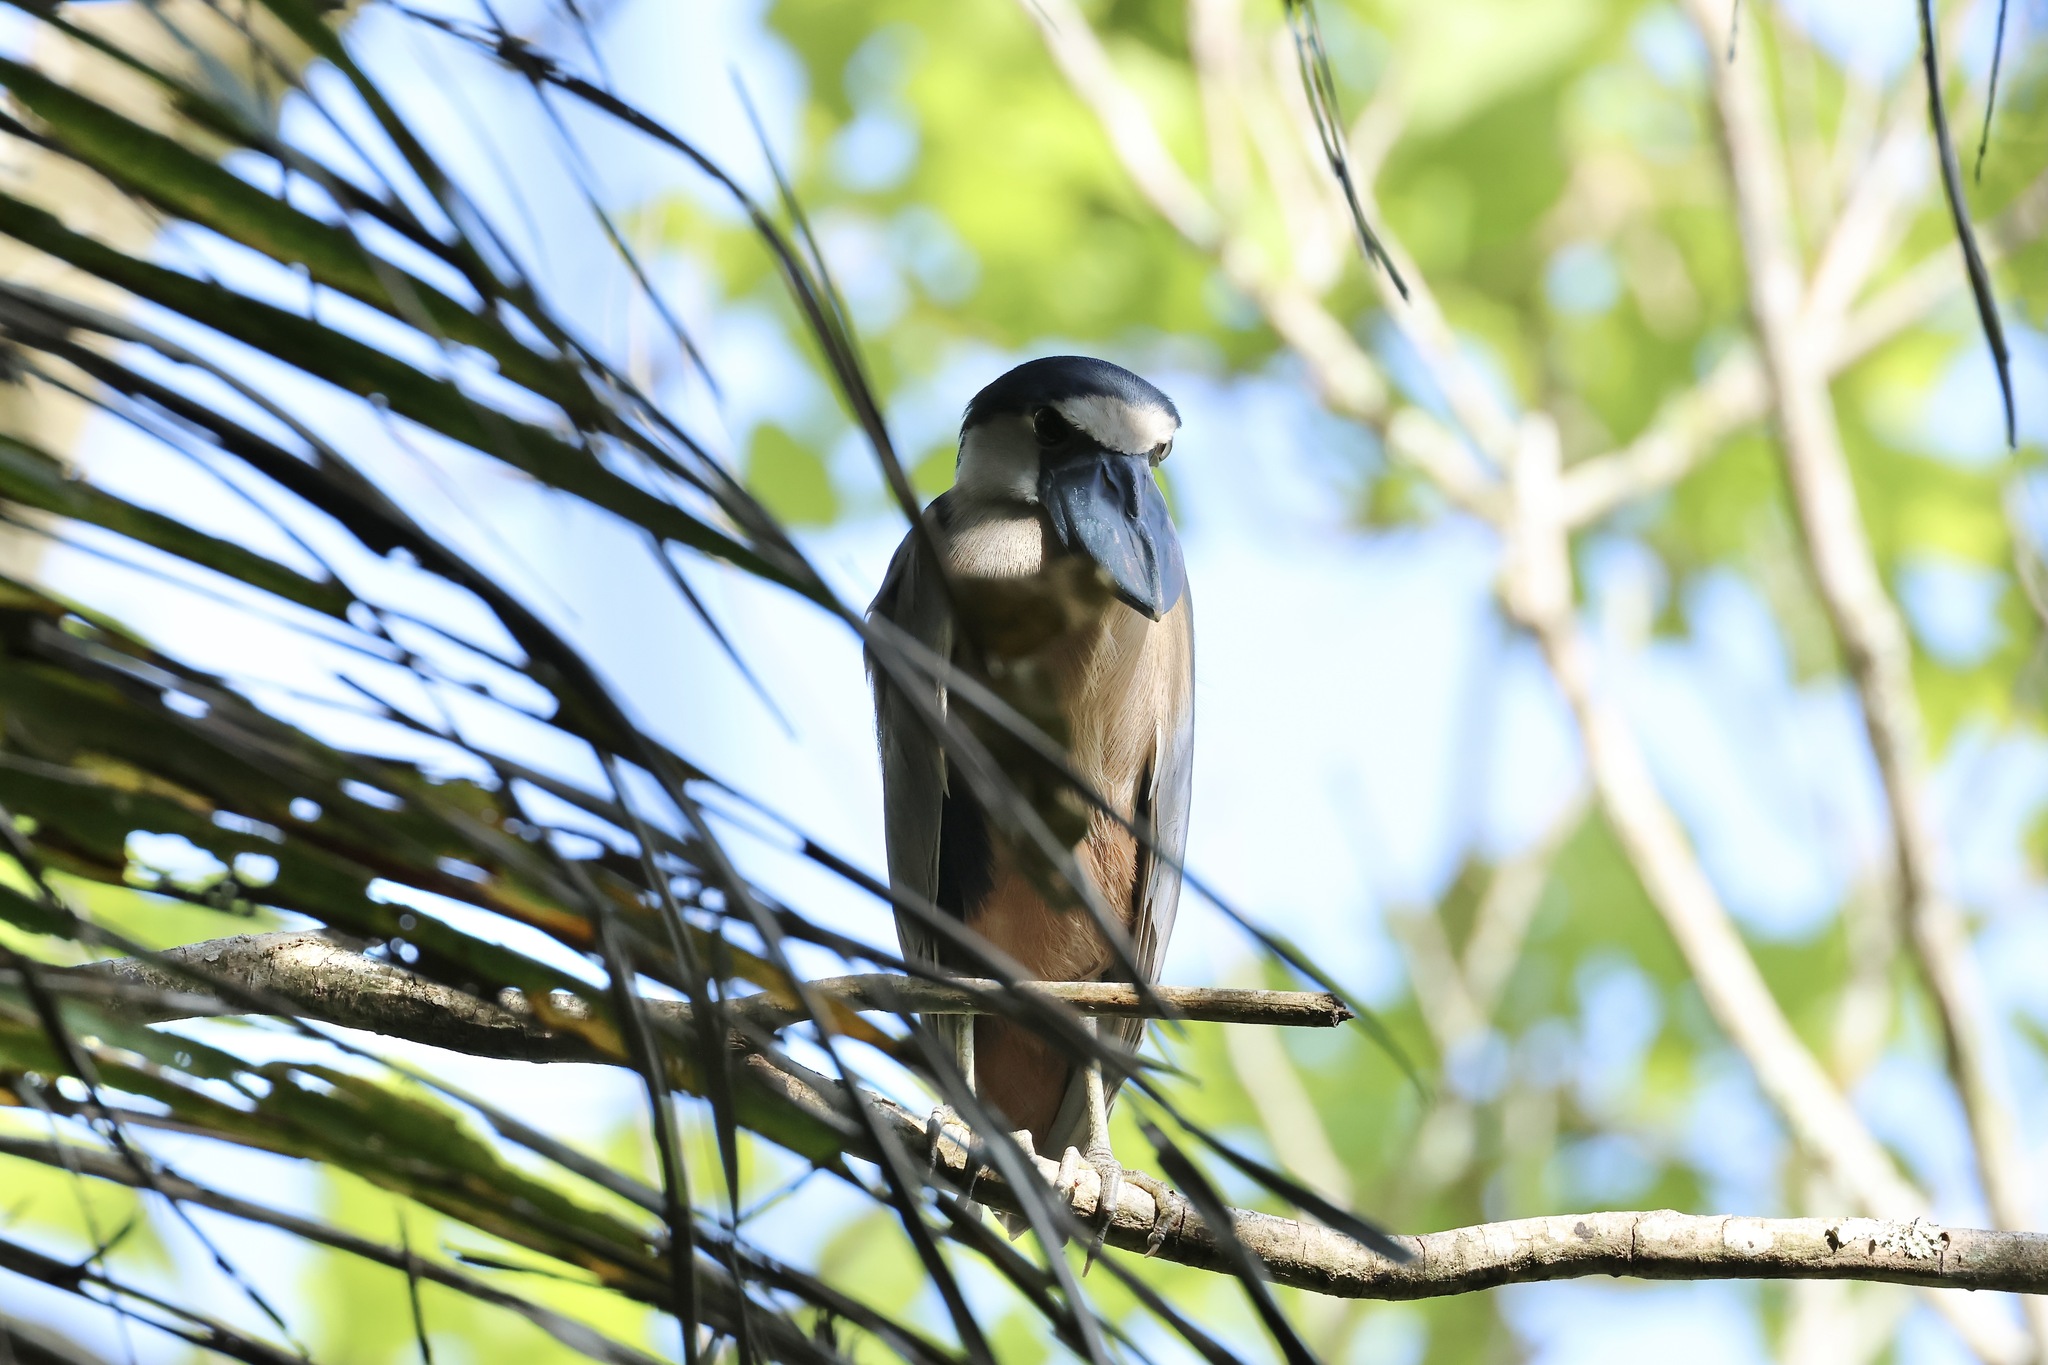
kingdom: Animalia
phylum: Chordata
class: Aves
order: Pelecaniformes
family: Ardeidae
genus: Cochlearius
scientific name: Cochlearius cochlearius
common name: Boat-billed heron
